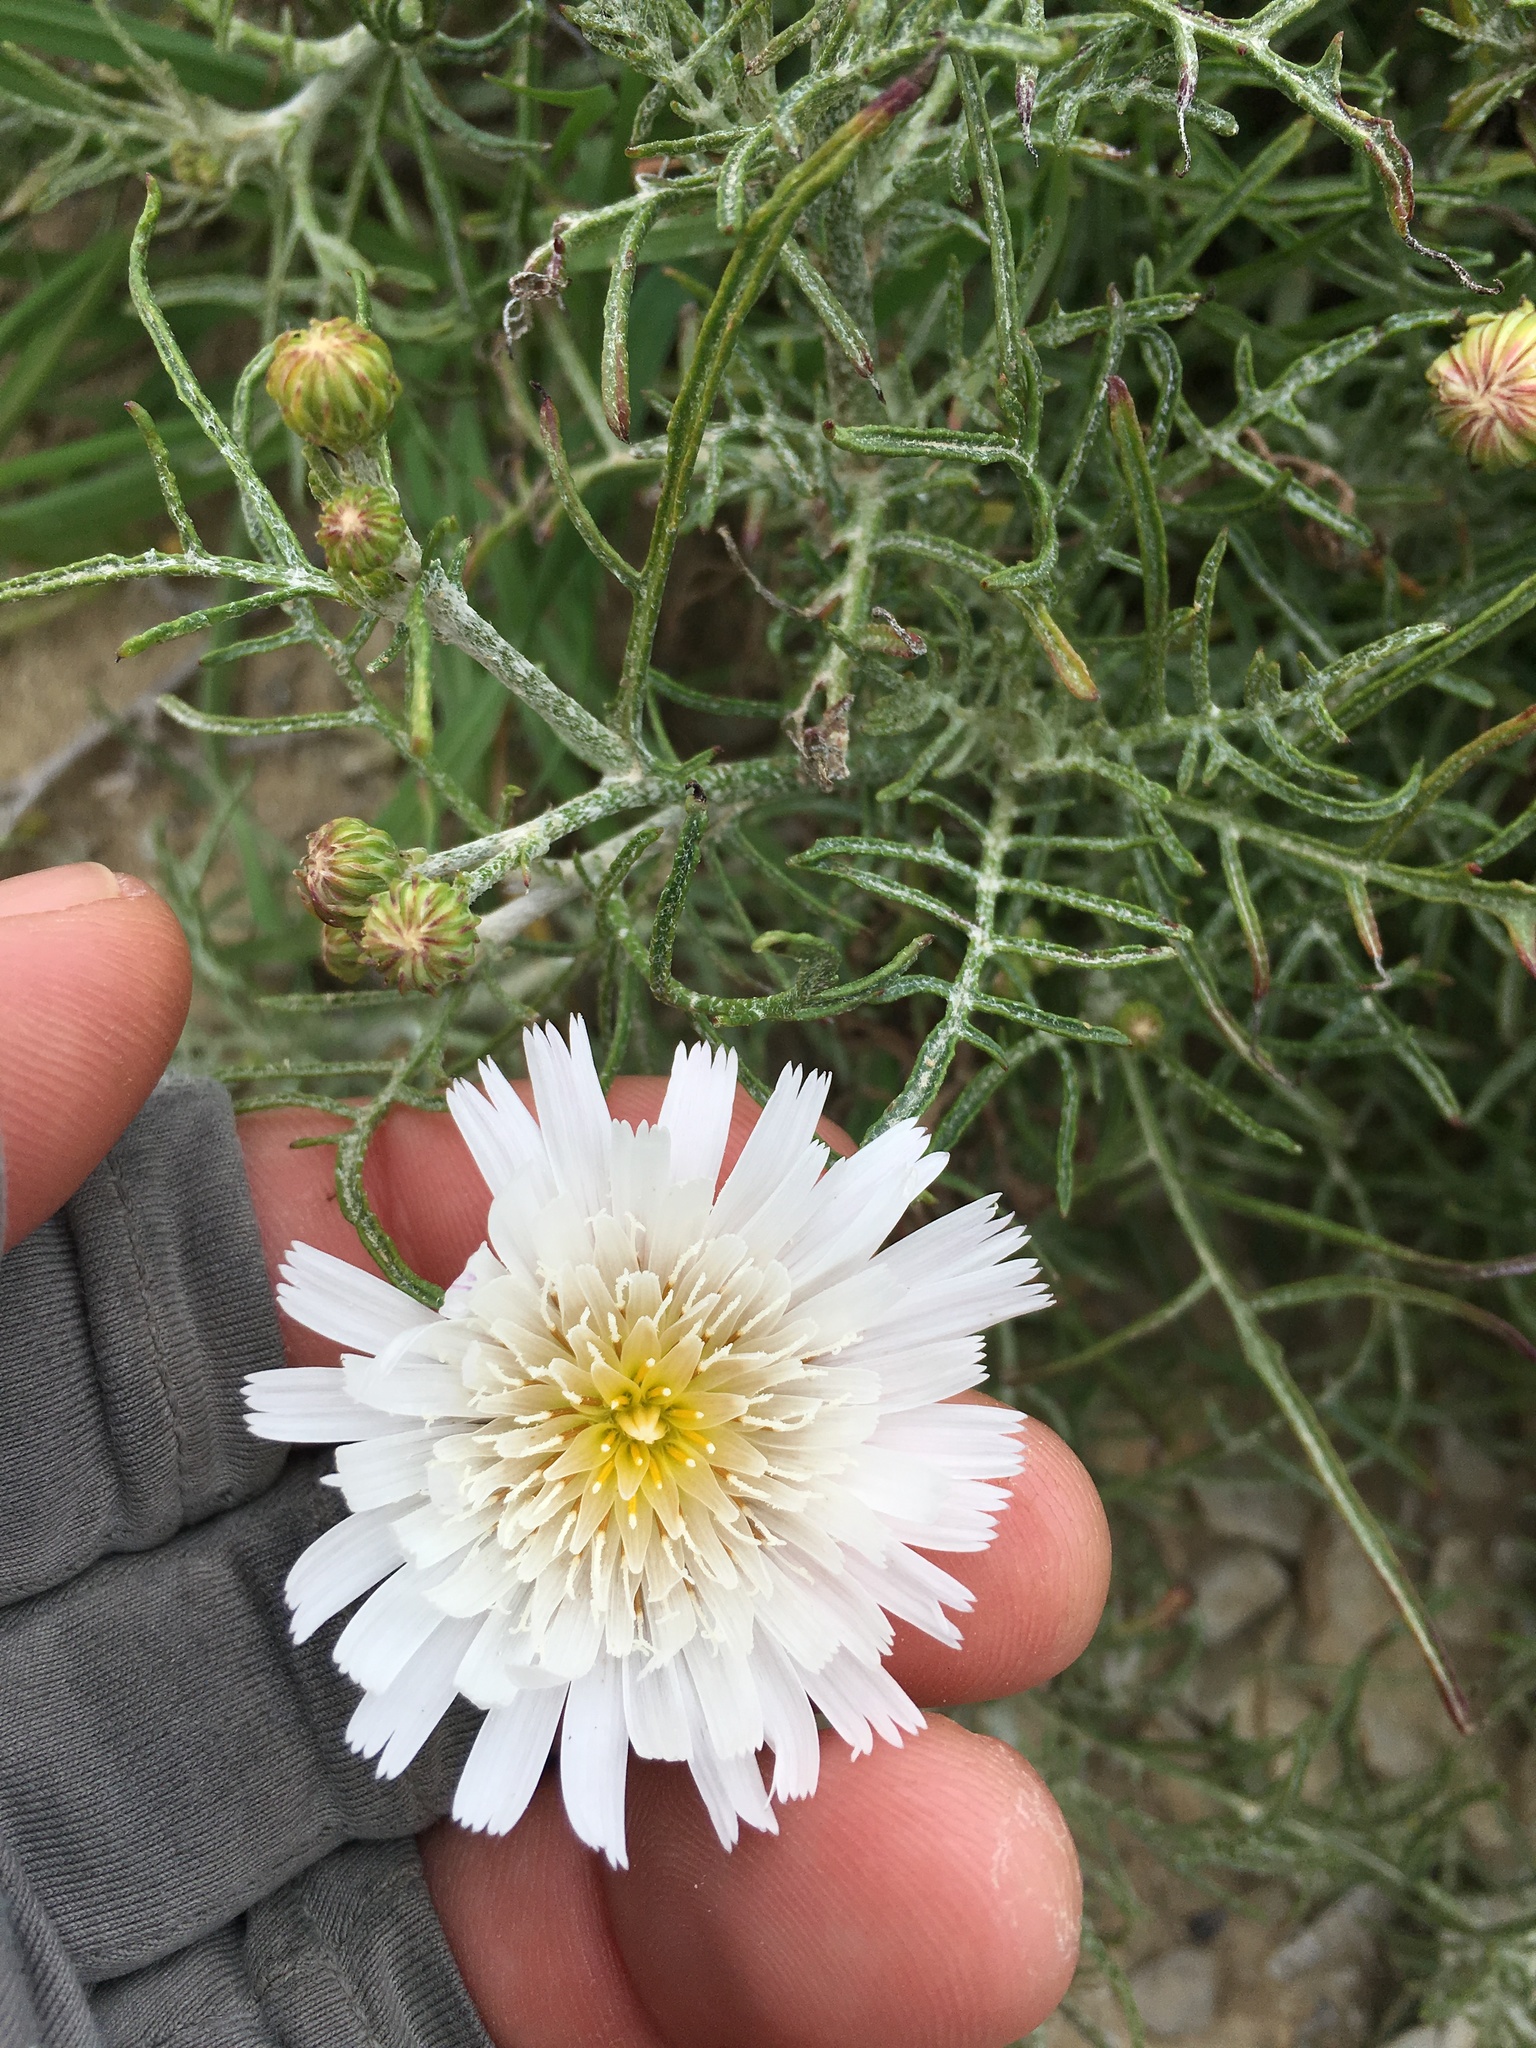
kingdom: Plantae
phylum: Tracheophyta
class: Magnoliopsida
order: Asterales
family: Asteraceae
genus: Malacothrix
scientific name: Malacothrix saxatilis
